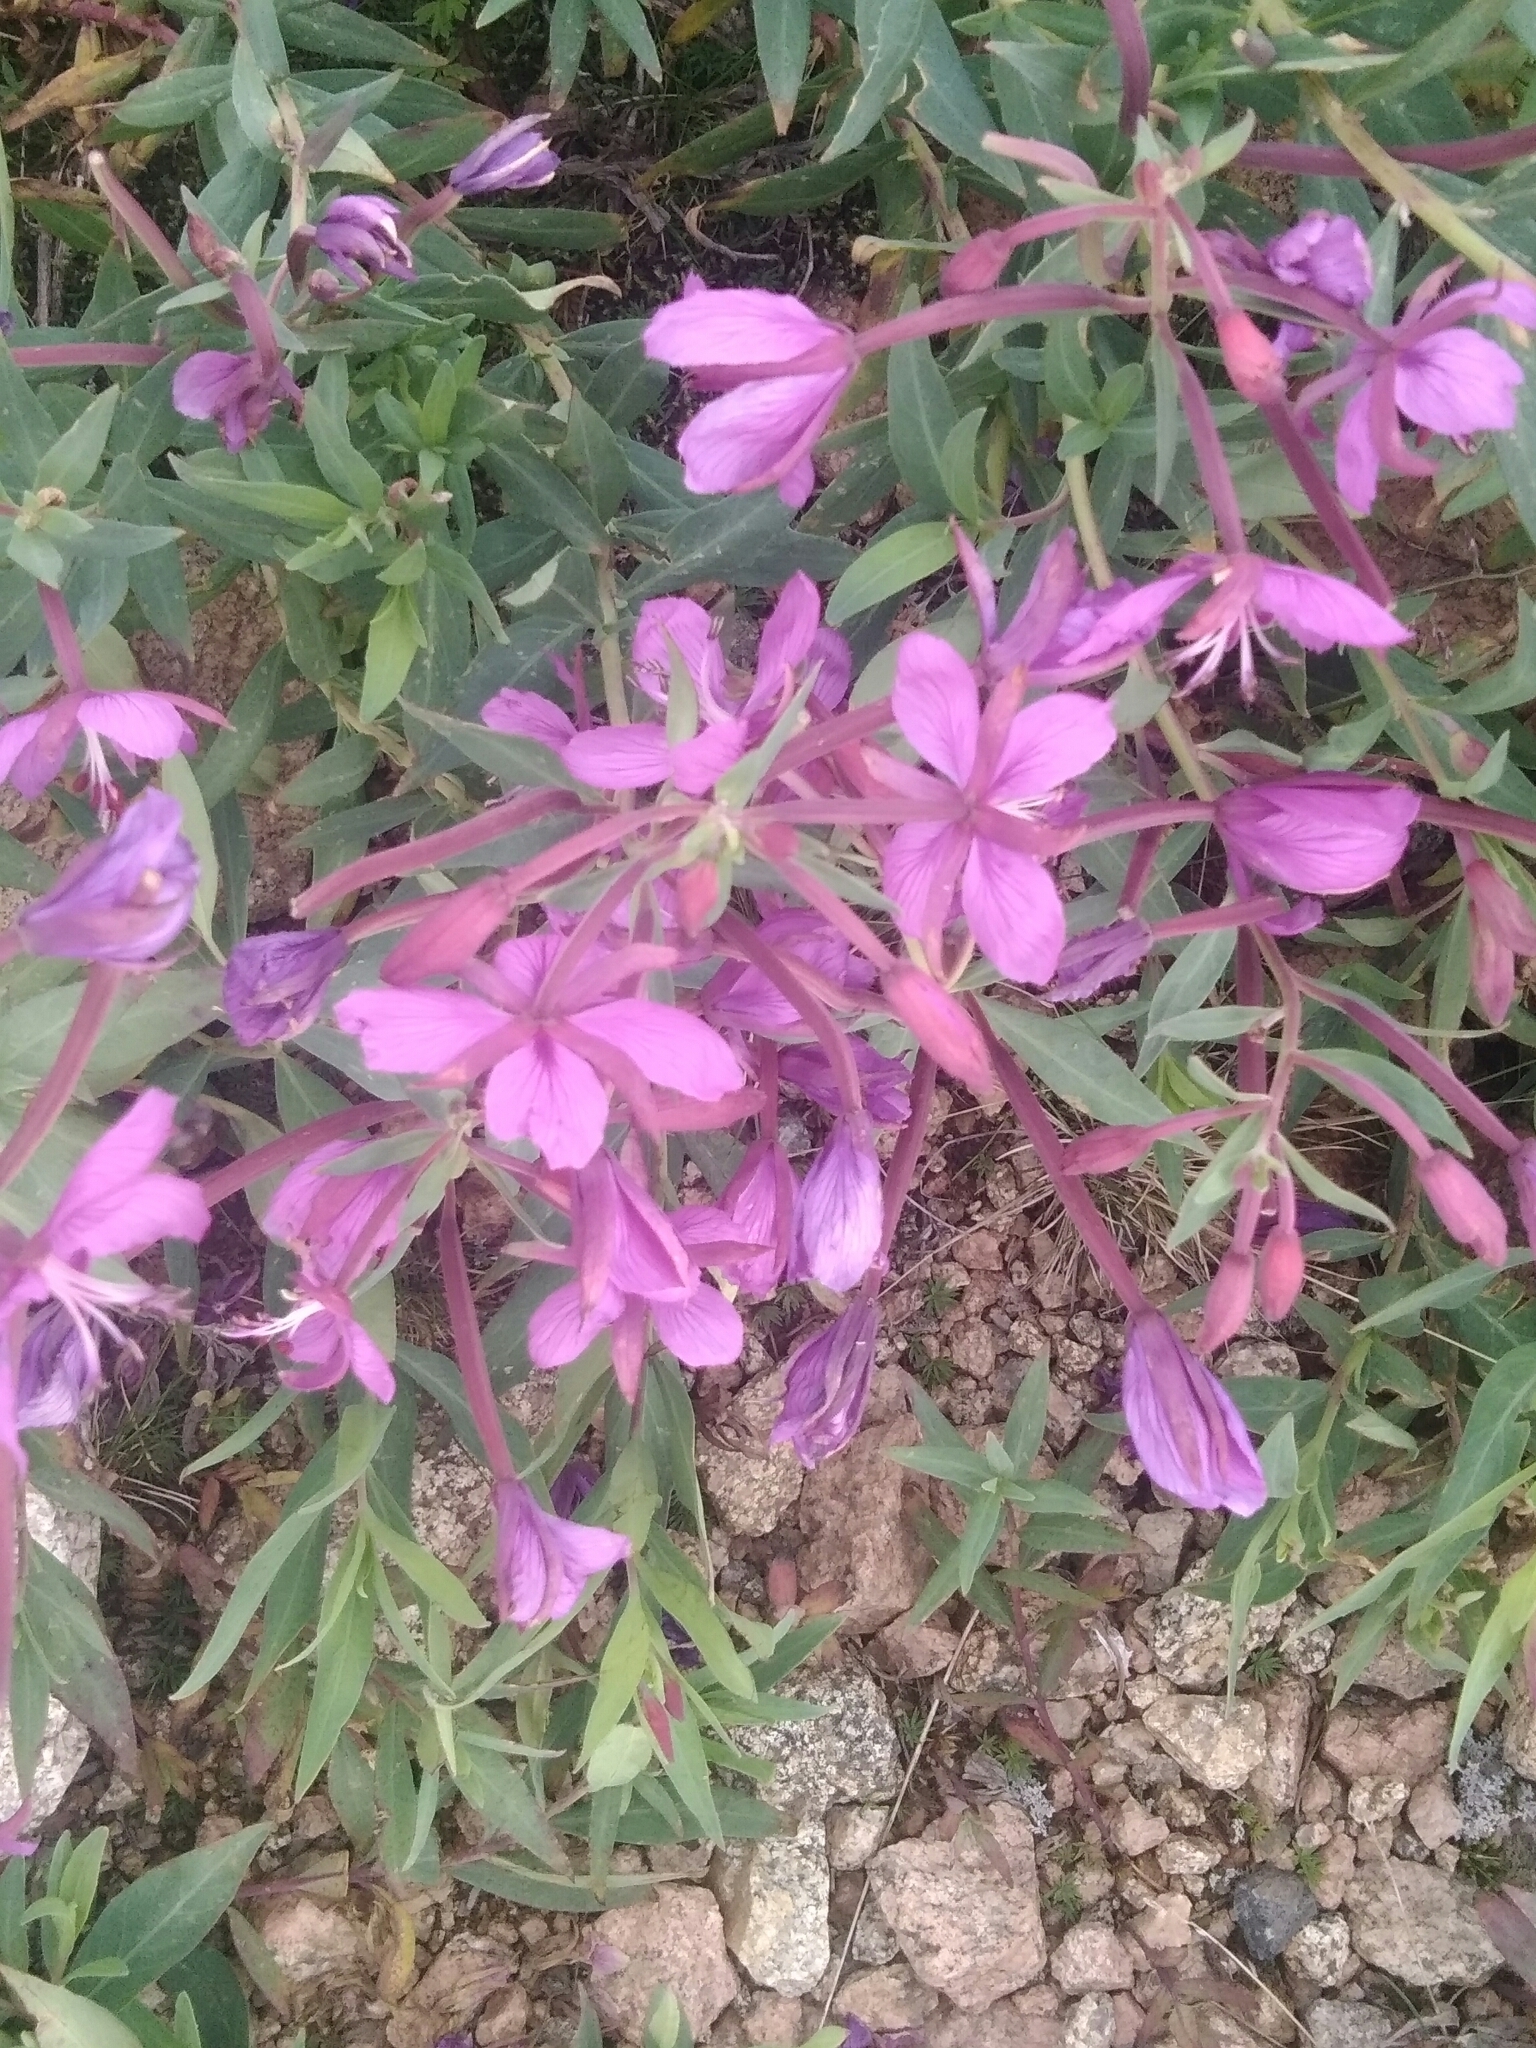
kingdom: Plantae
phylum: Tracheophyta
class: Magnoliopsida
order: Myrtales
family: Onagraceae
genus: Chamaenerion
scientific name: Chamaenerion latifolium
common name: Dwarf fireweed
